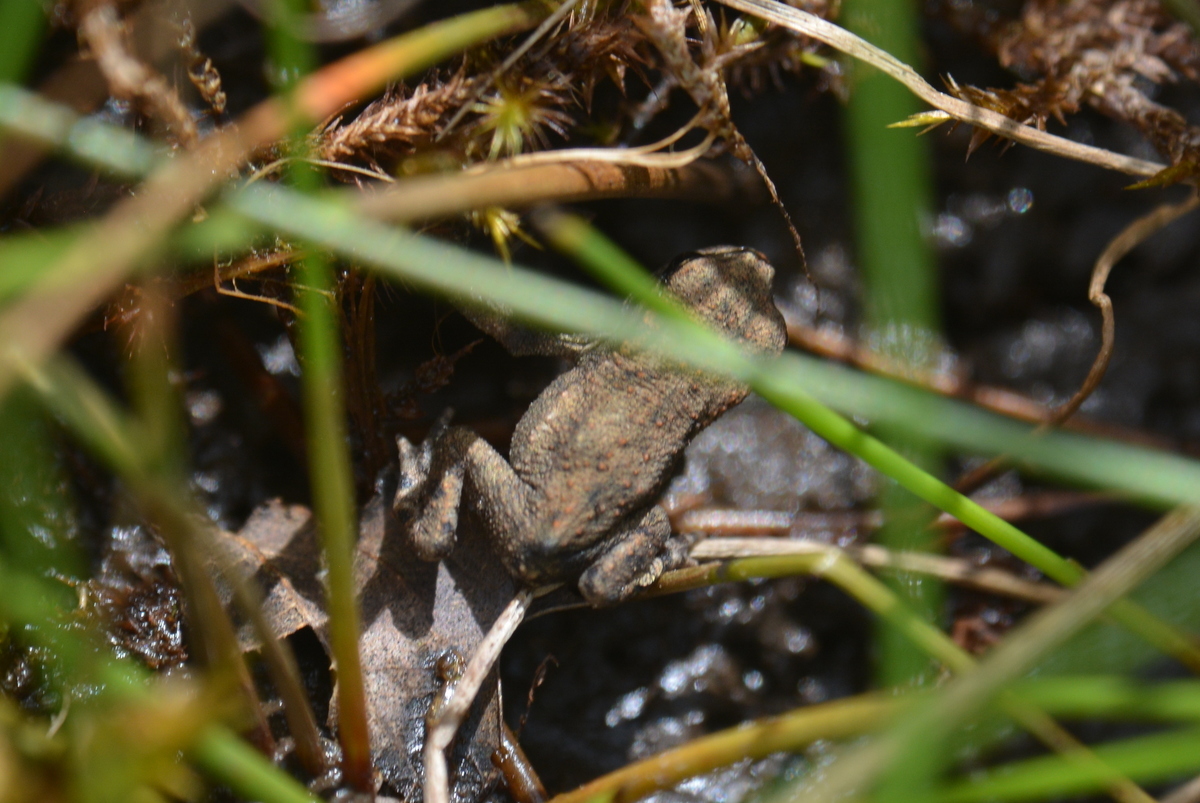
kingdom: Animalia
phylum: Chordata
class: Amphibia
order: Anura
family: Bufonidae
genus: Bufo
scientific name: Bufo bufo
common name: Common toad
